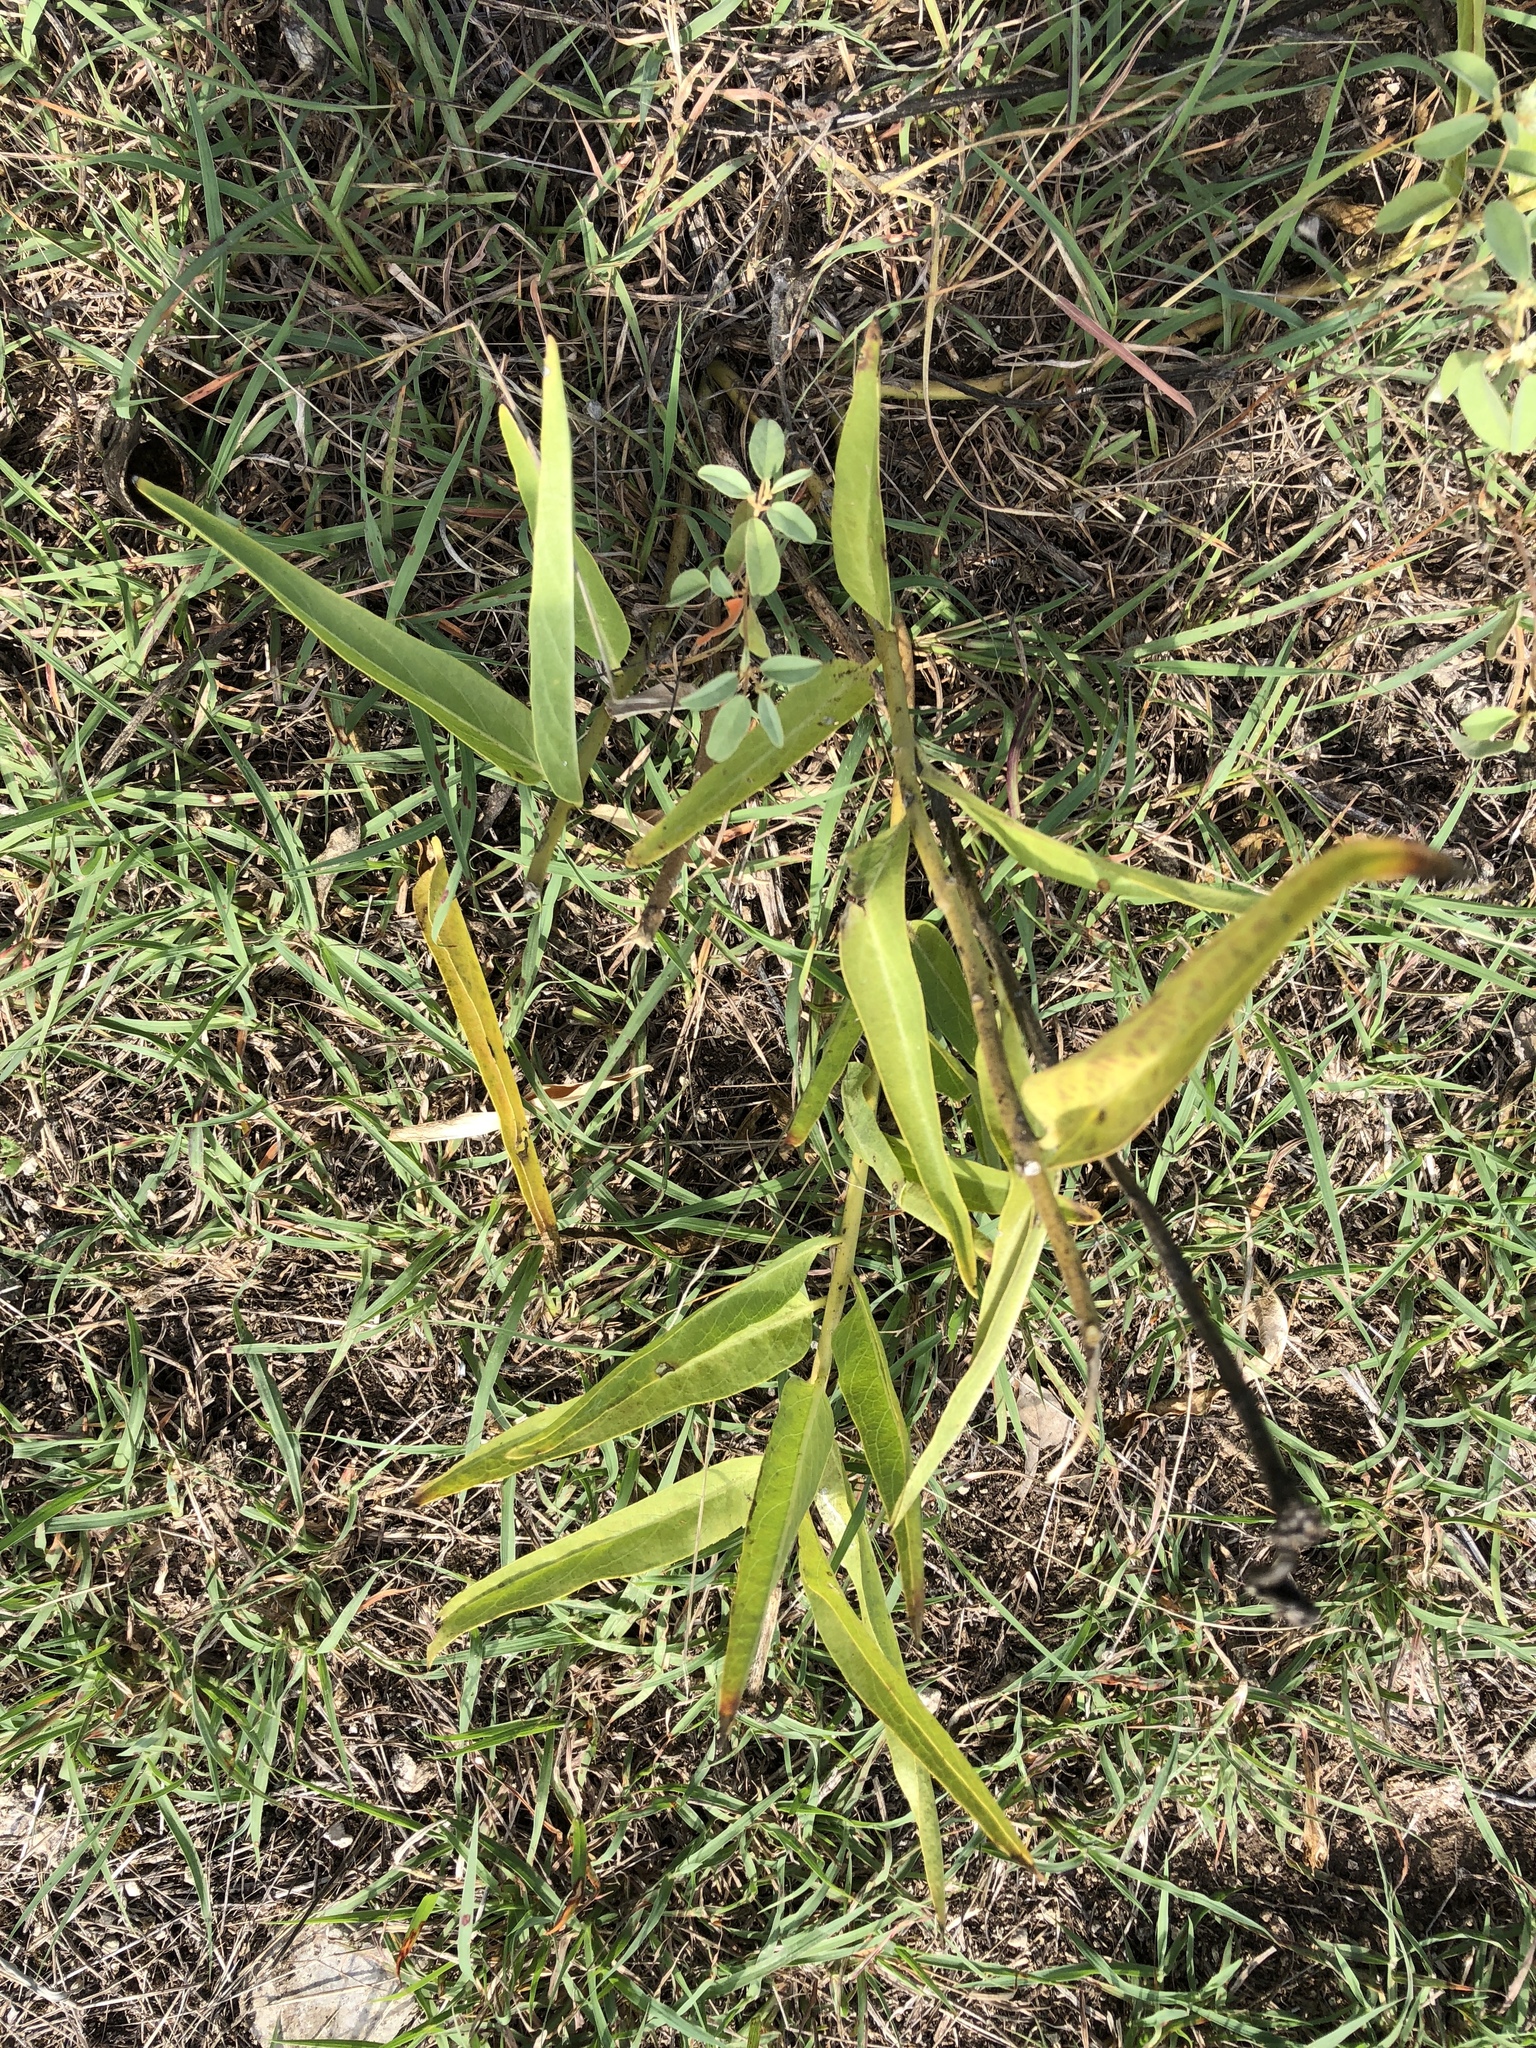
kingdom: Plantae
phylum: Tracheophyta
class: Magnoliopsida
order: Gentianales
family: Apocynaceae
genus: Asclepias
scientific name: Asclepias asperula
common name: Antelope horns
